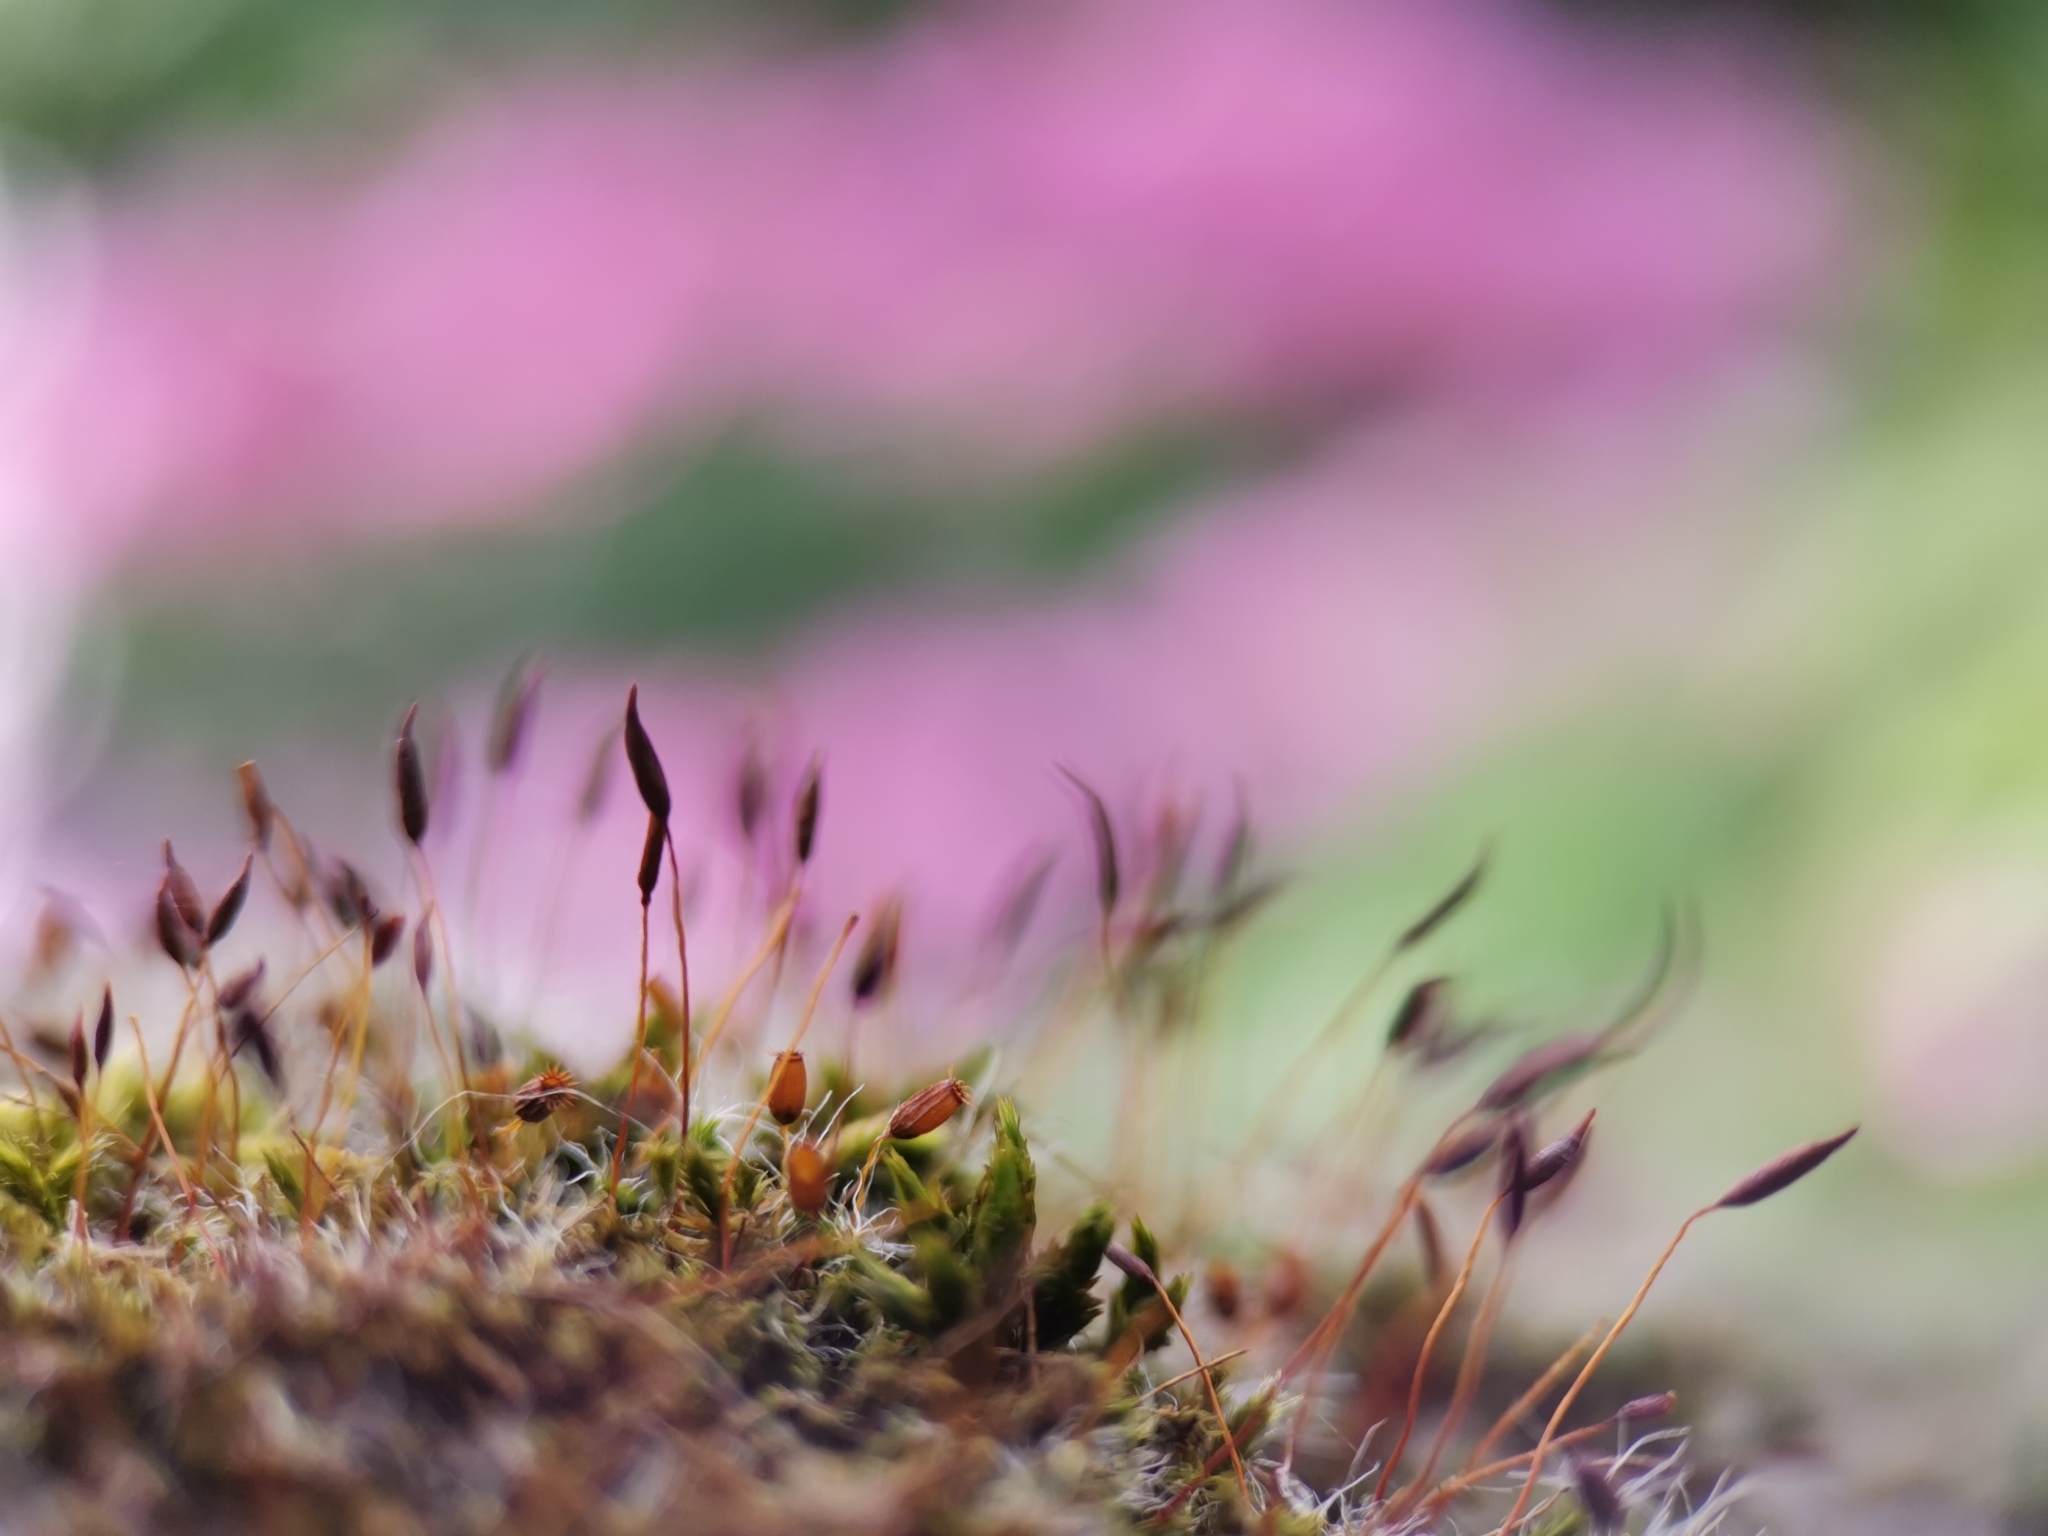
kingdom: Plantae
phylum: Bryophyta
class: Bryopsida
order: Pottiales
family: Pottiaceae
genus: Tortula
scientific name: Tortula muralis
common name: Wall screw-moss
